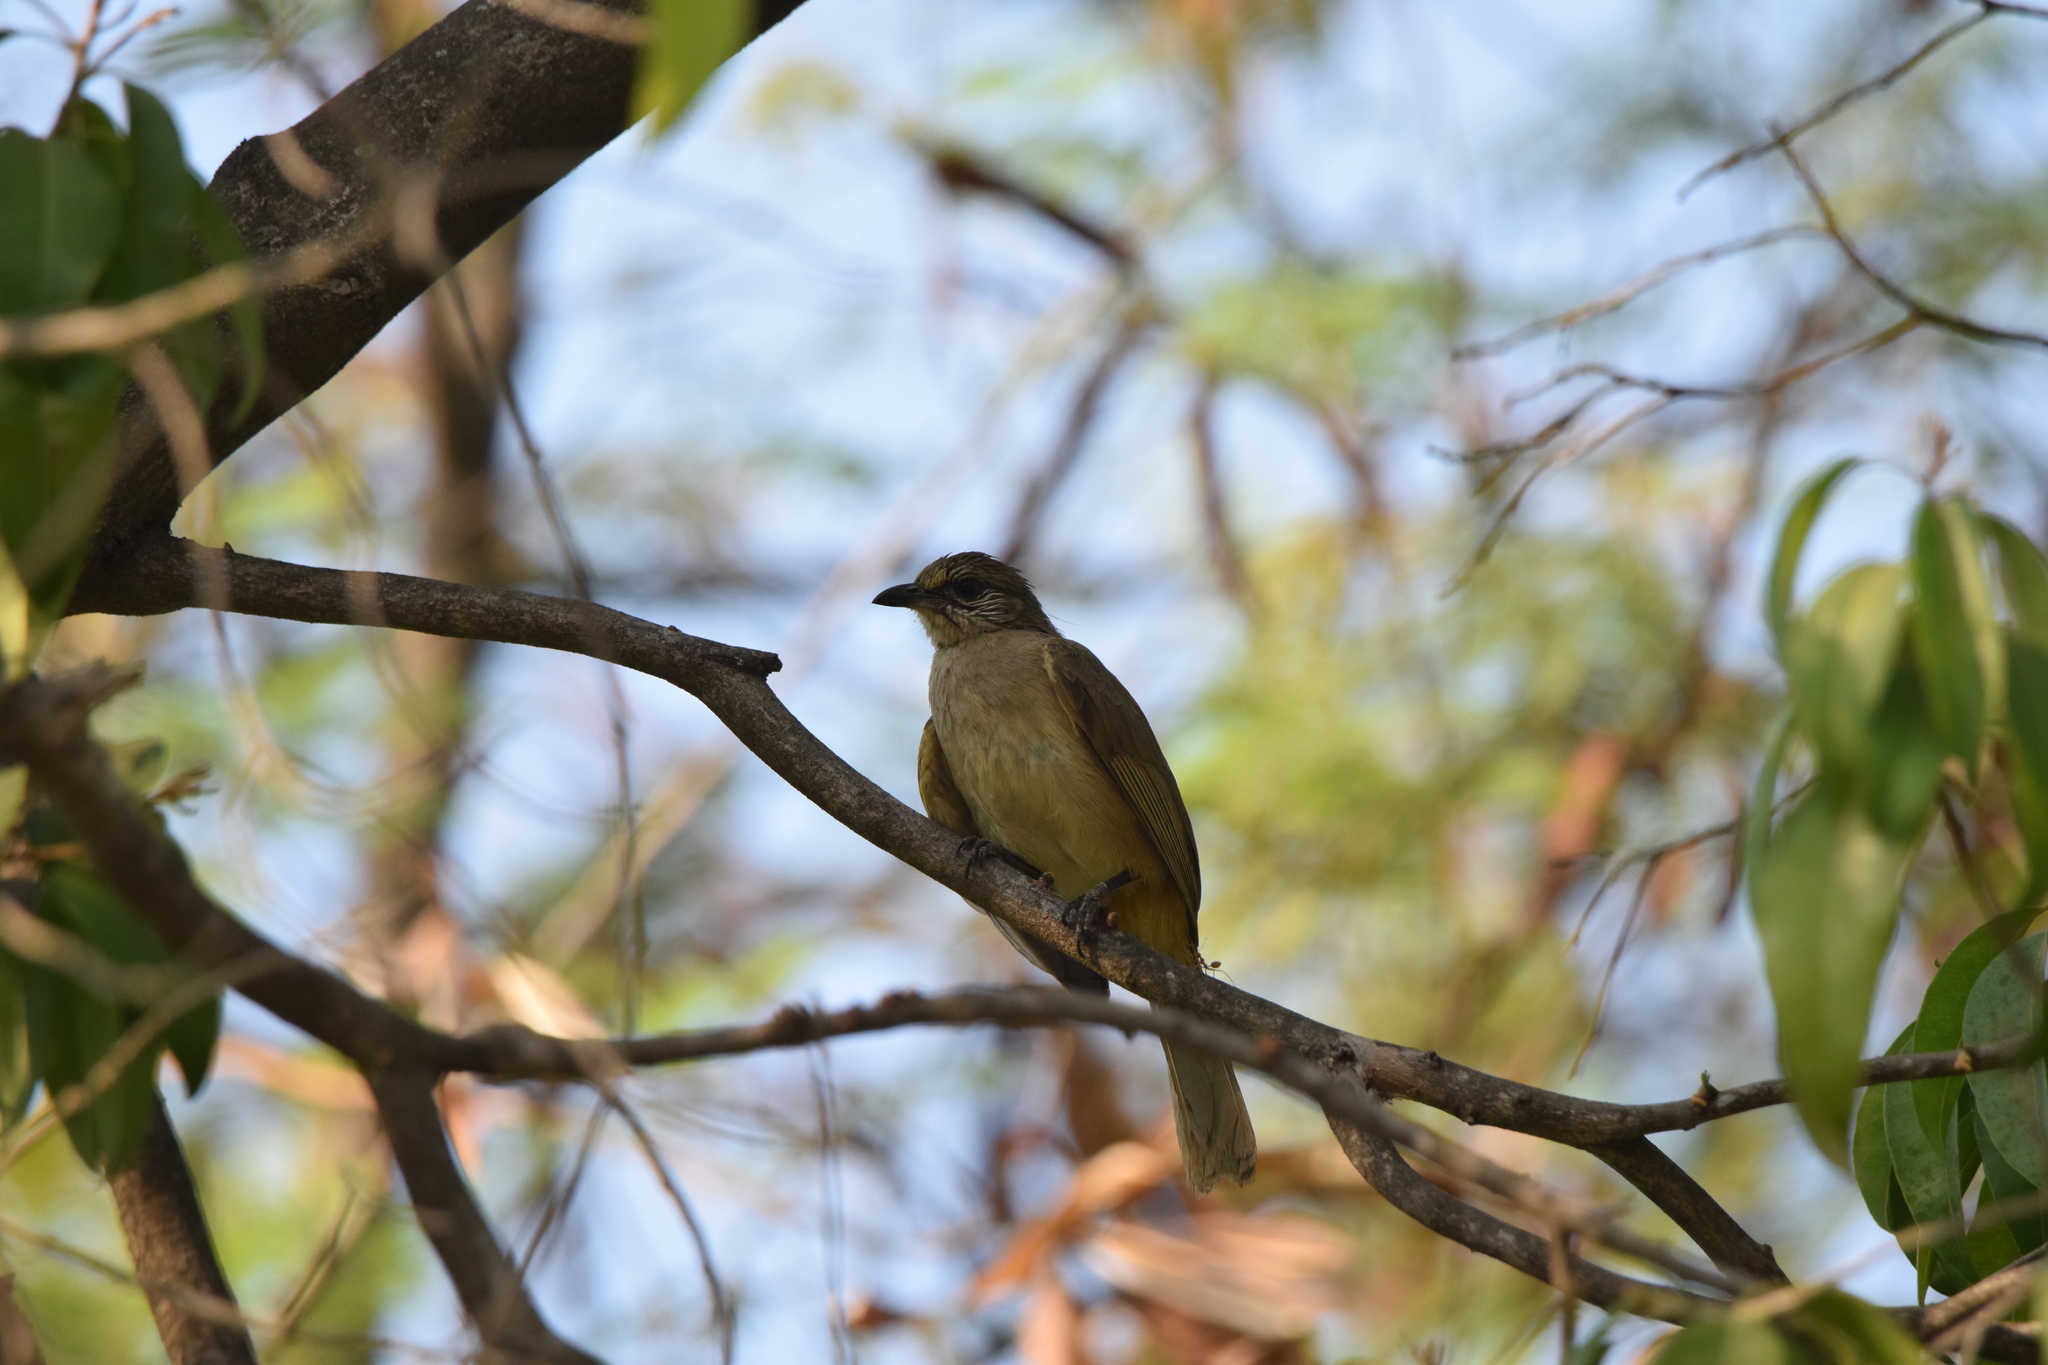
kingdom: Animalia
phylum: Chordata
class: Aves
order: Passeriformes
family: Pycnonotidae
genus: Pycnonotus
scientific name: Pycnonotus blanfordi
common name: Streak-eared bulbul
